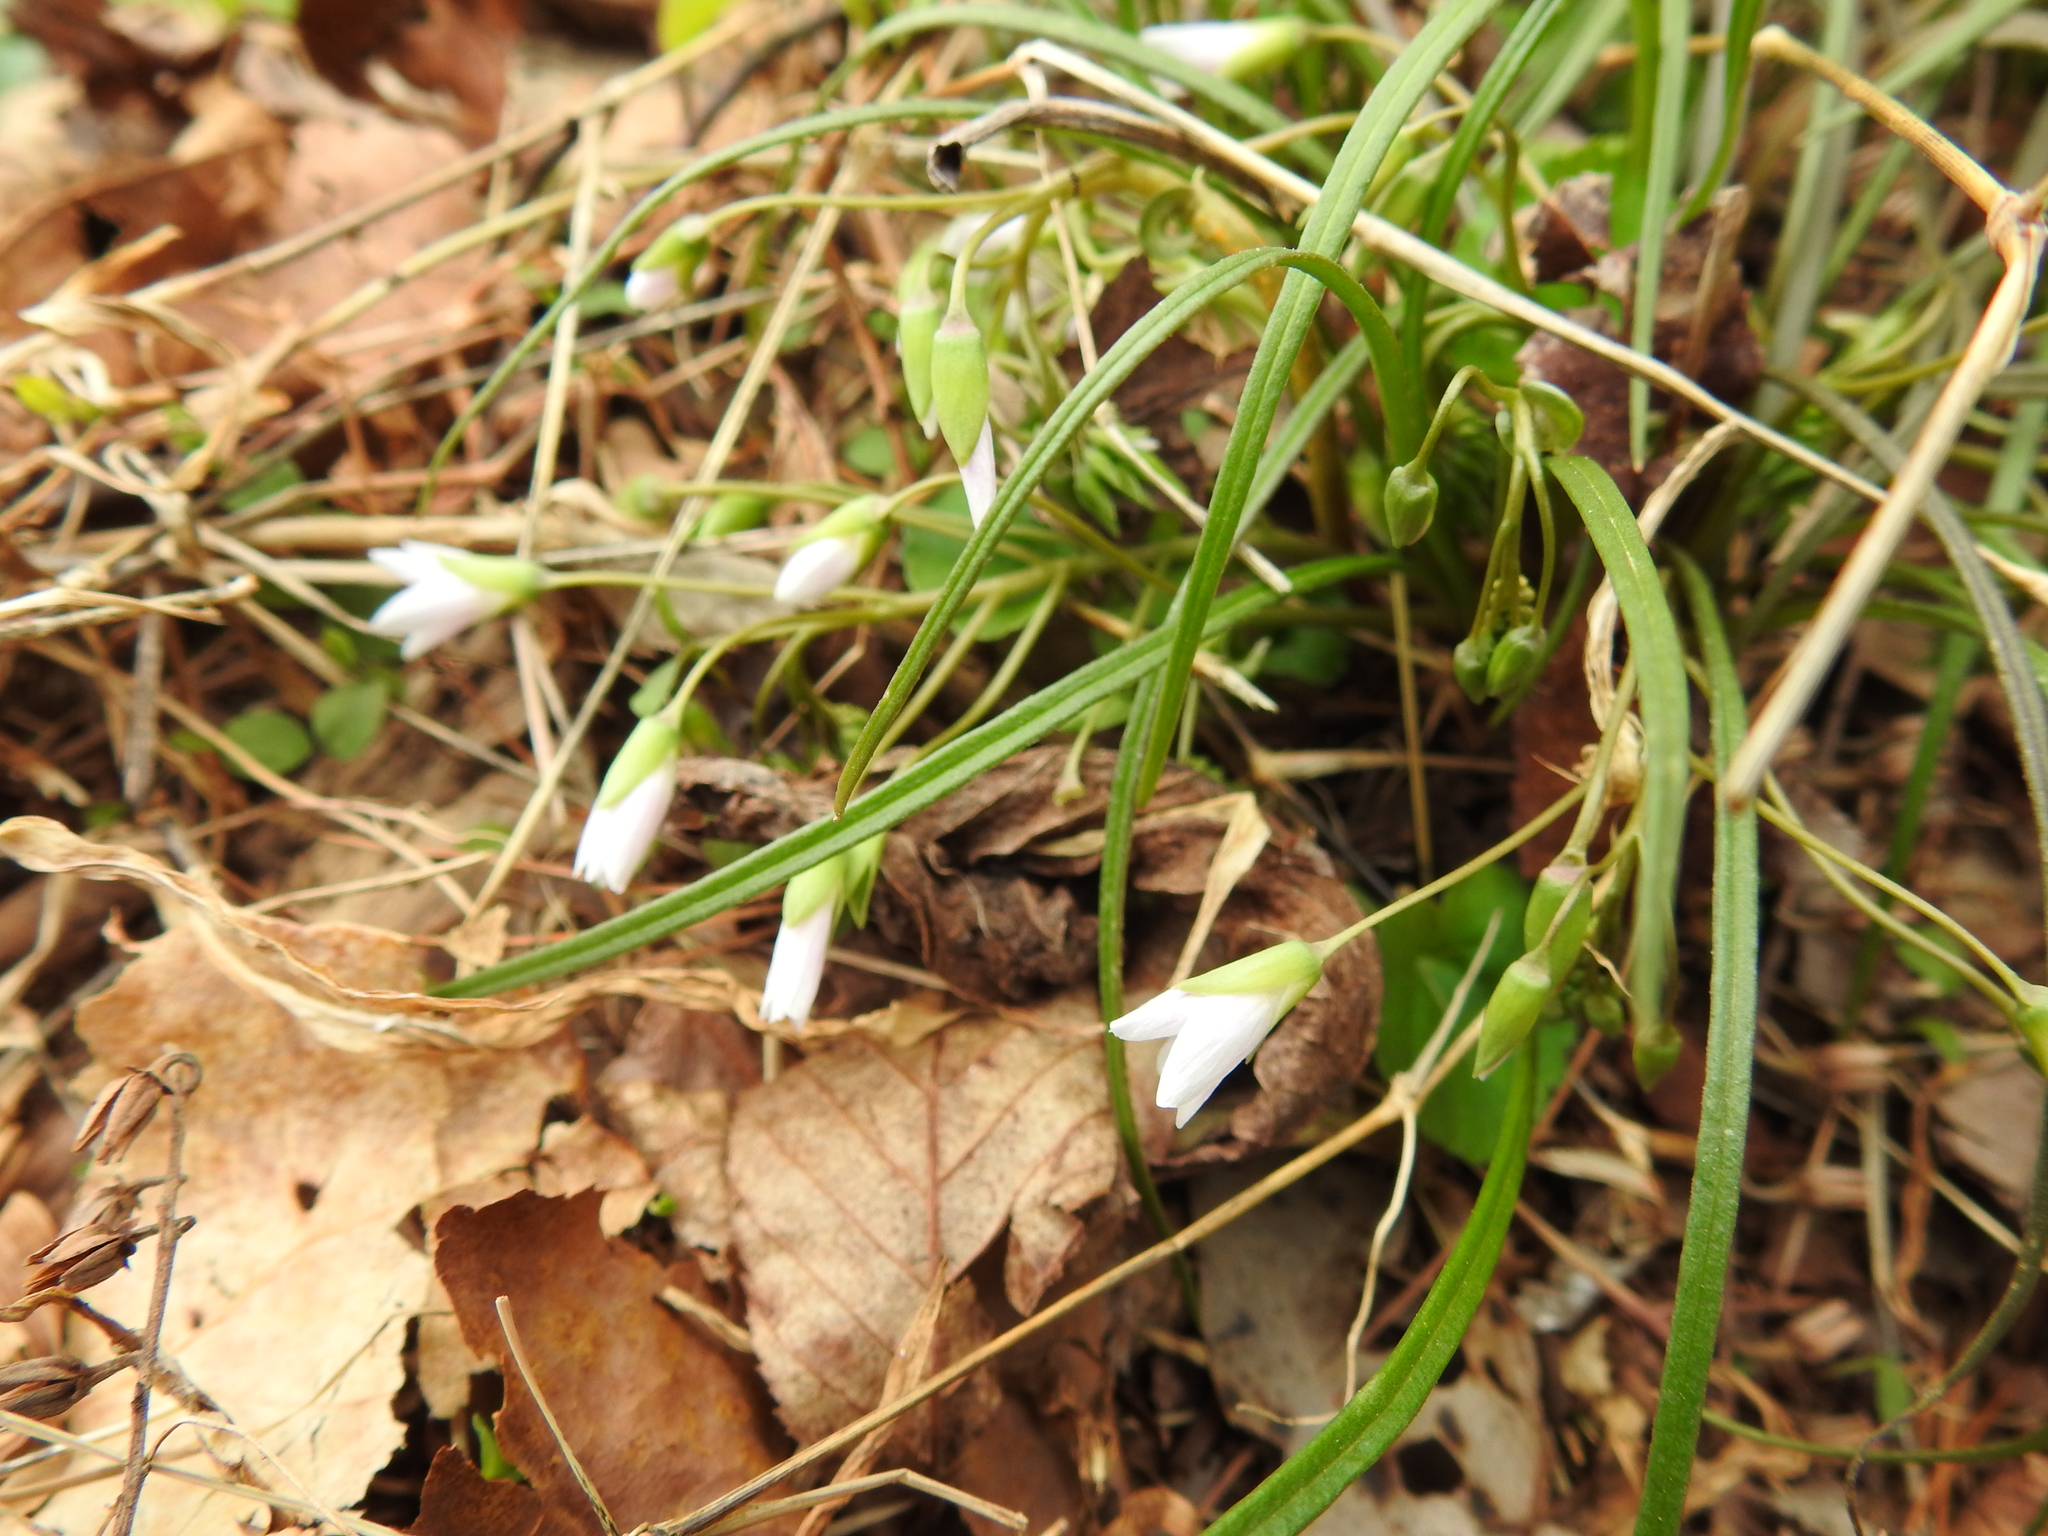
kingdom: Plantae
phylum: Tracheophyta
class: Magnoliopsida
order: Caryophyllales
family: Montiaceae
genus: Claytonia
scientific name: Claytonia virginica
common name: Virginia springbeauty
